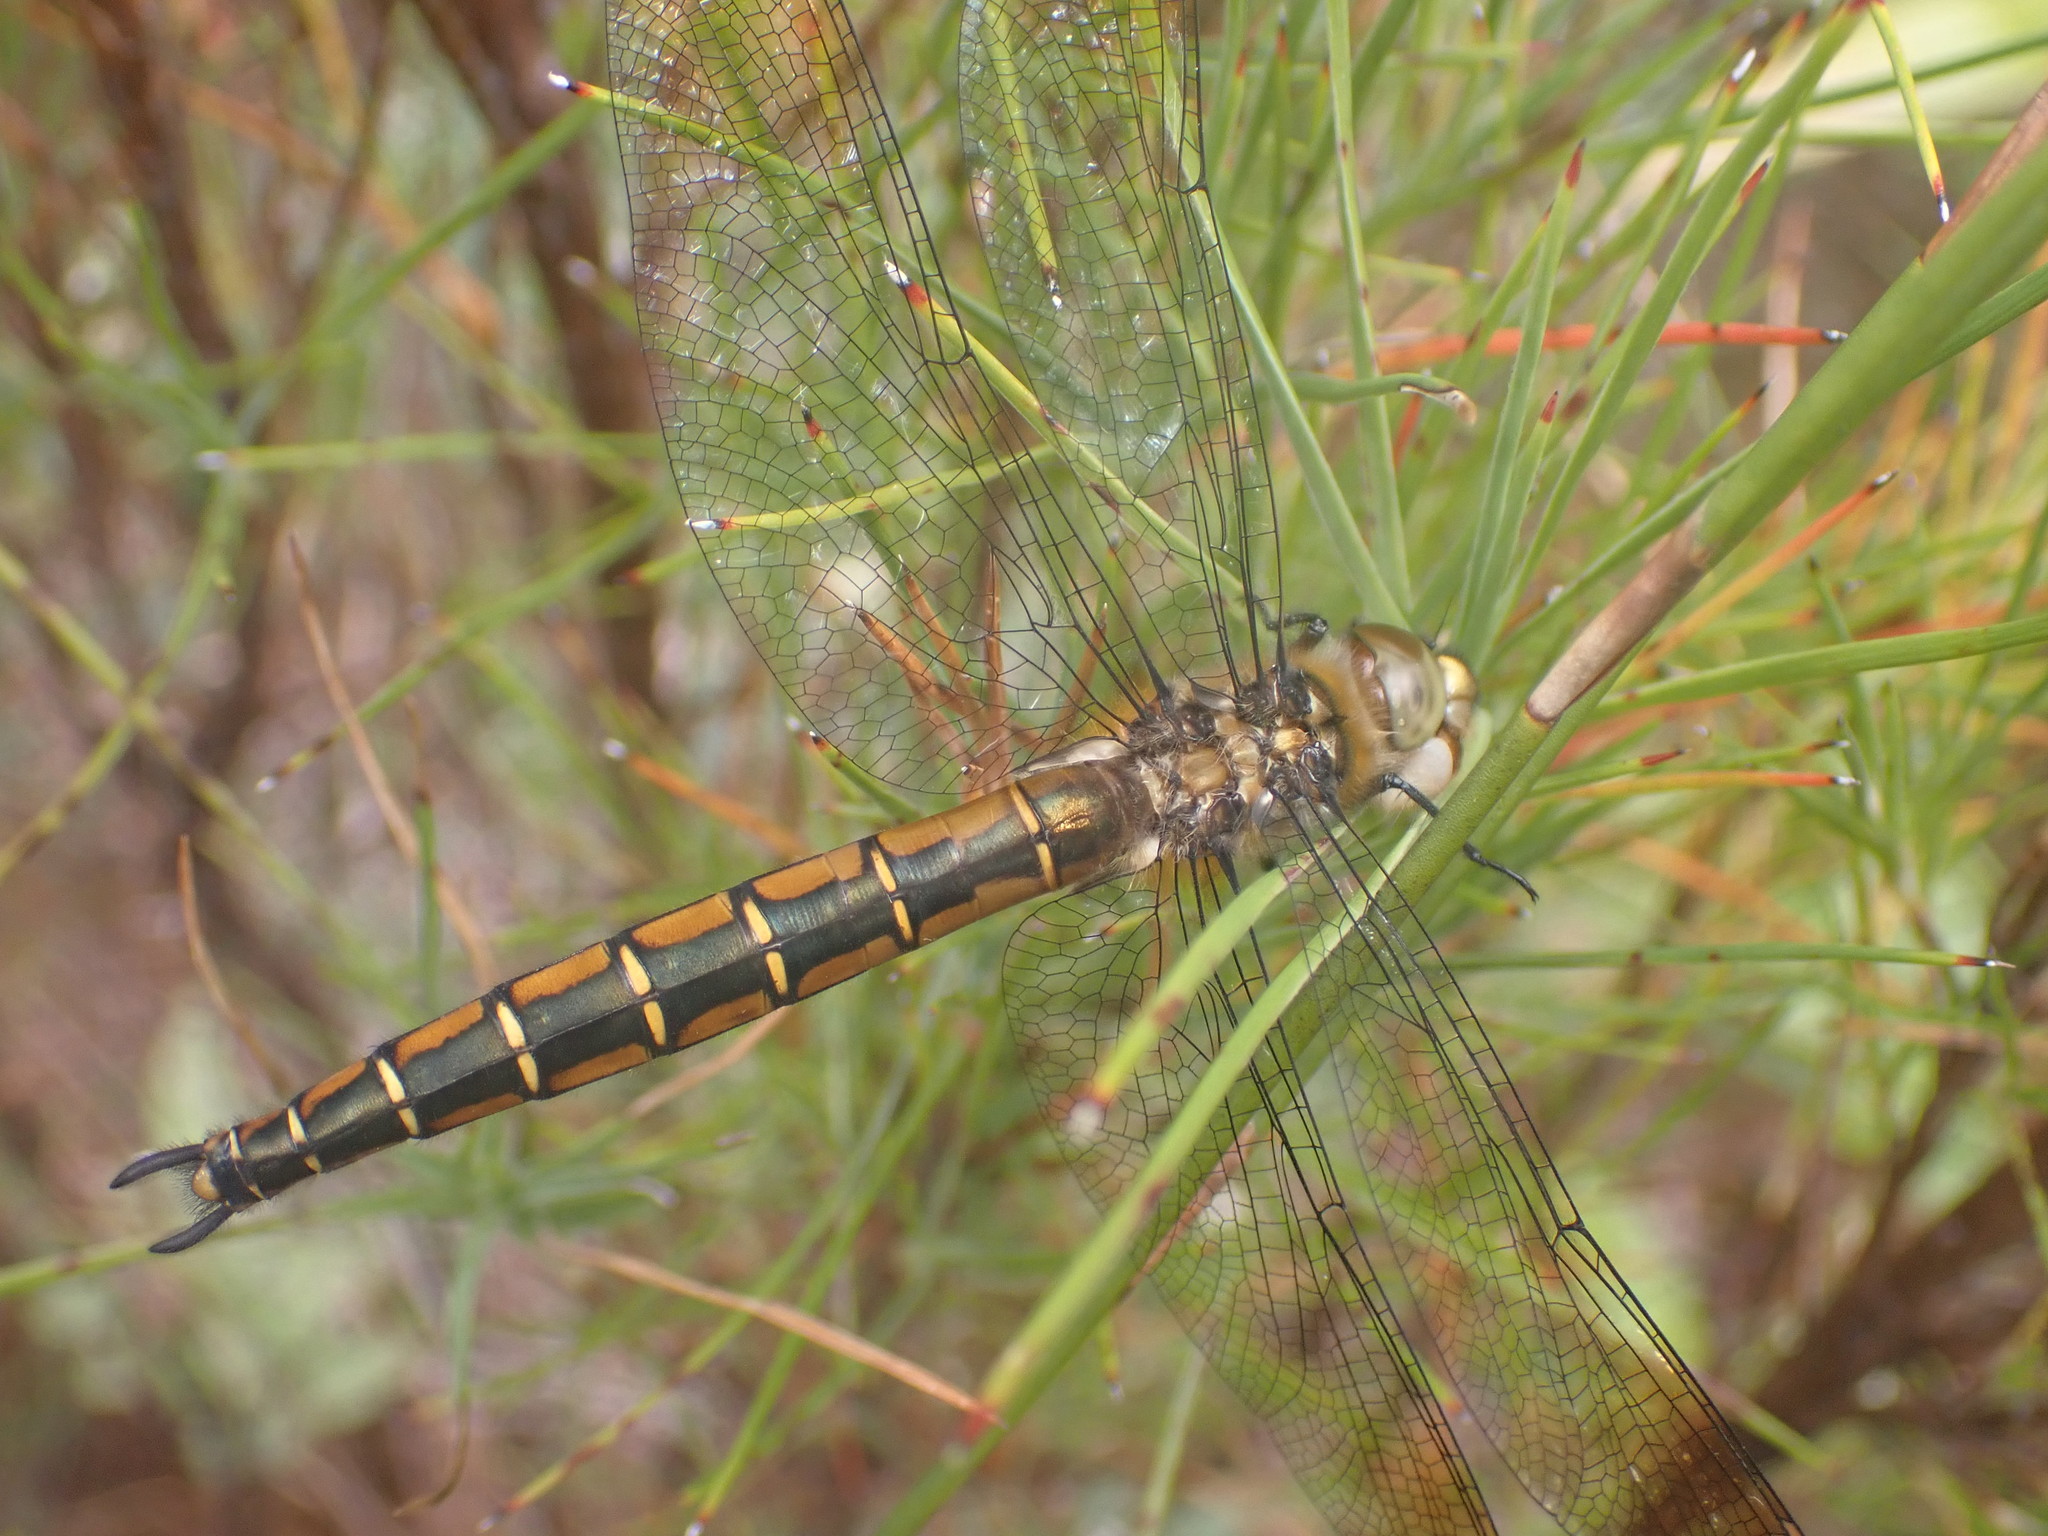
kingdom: Animalia
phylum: Arthropoda
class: Insecta
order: Odonata
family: Corduliidae
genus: Procordulia
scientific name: Procordulia smithii
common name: Ranger dragonfly
